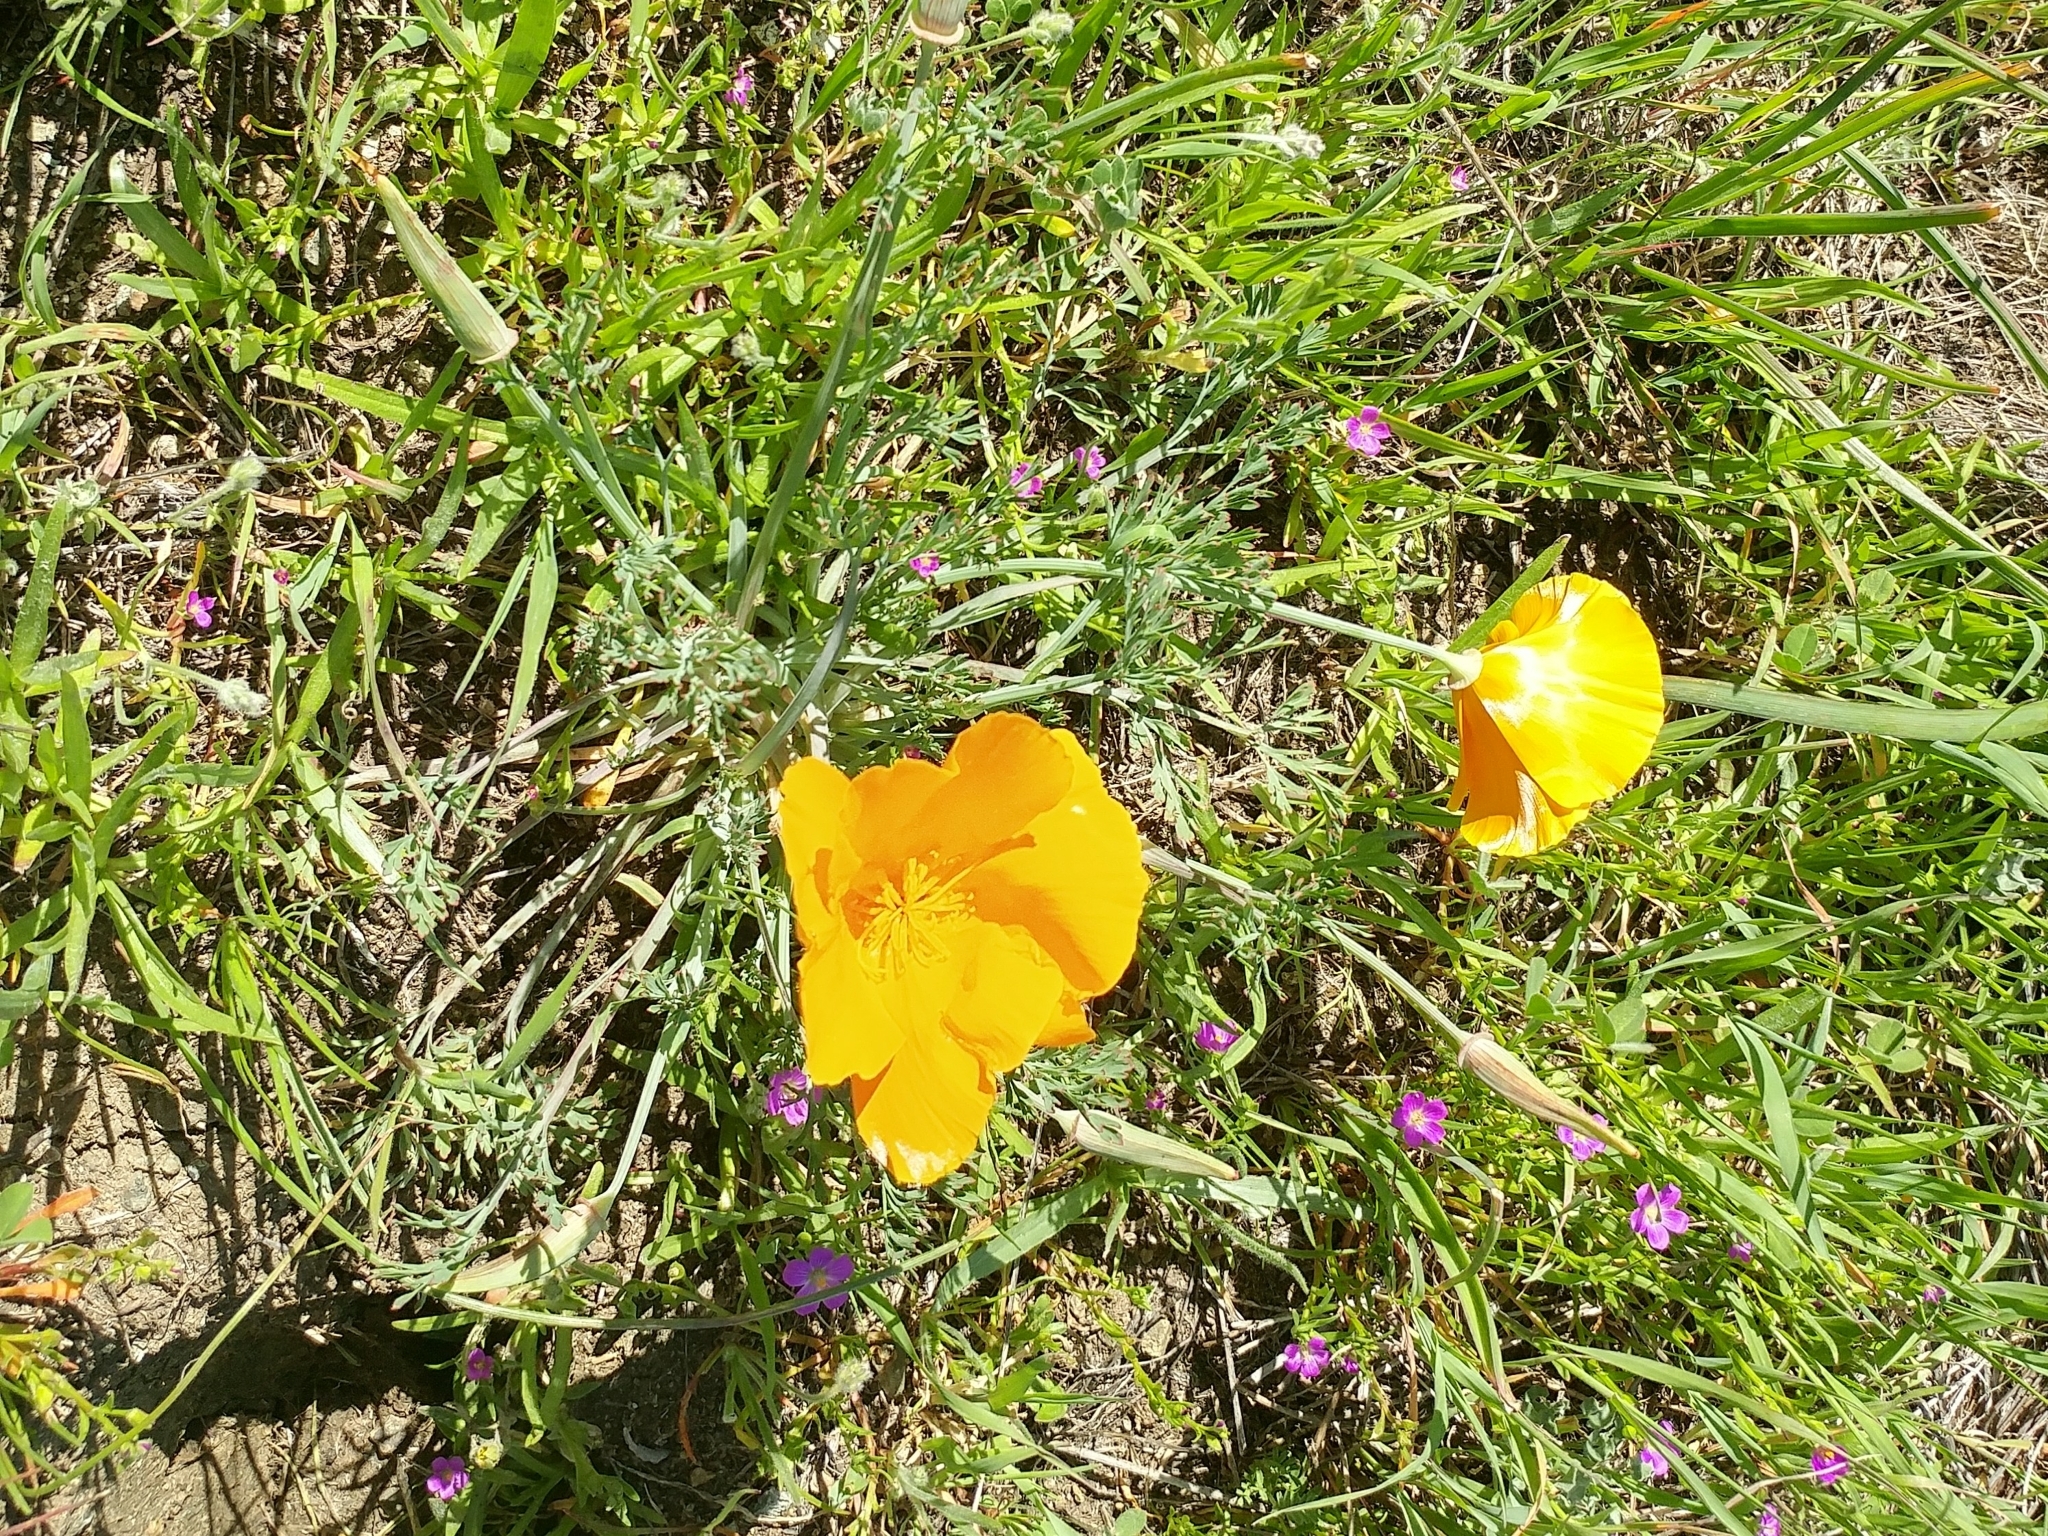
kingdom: Plantae
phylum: Tracheophyta
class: Magnoliopsida
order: Ranunculales
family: Papaveraceae
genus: Eschscholzia
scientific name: Eschscholzia californica
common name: California poppy
